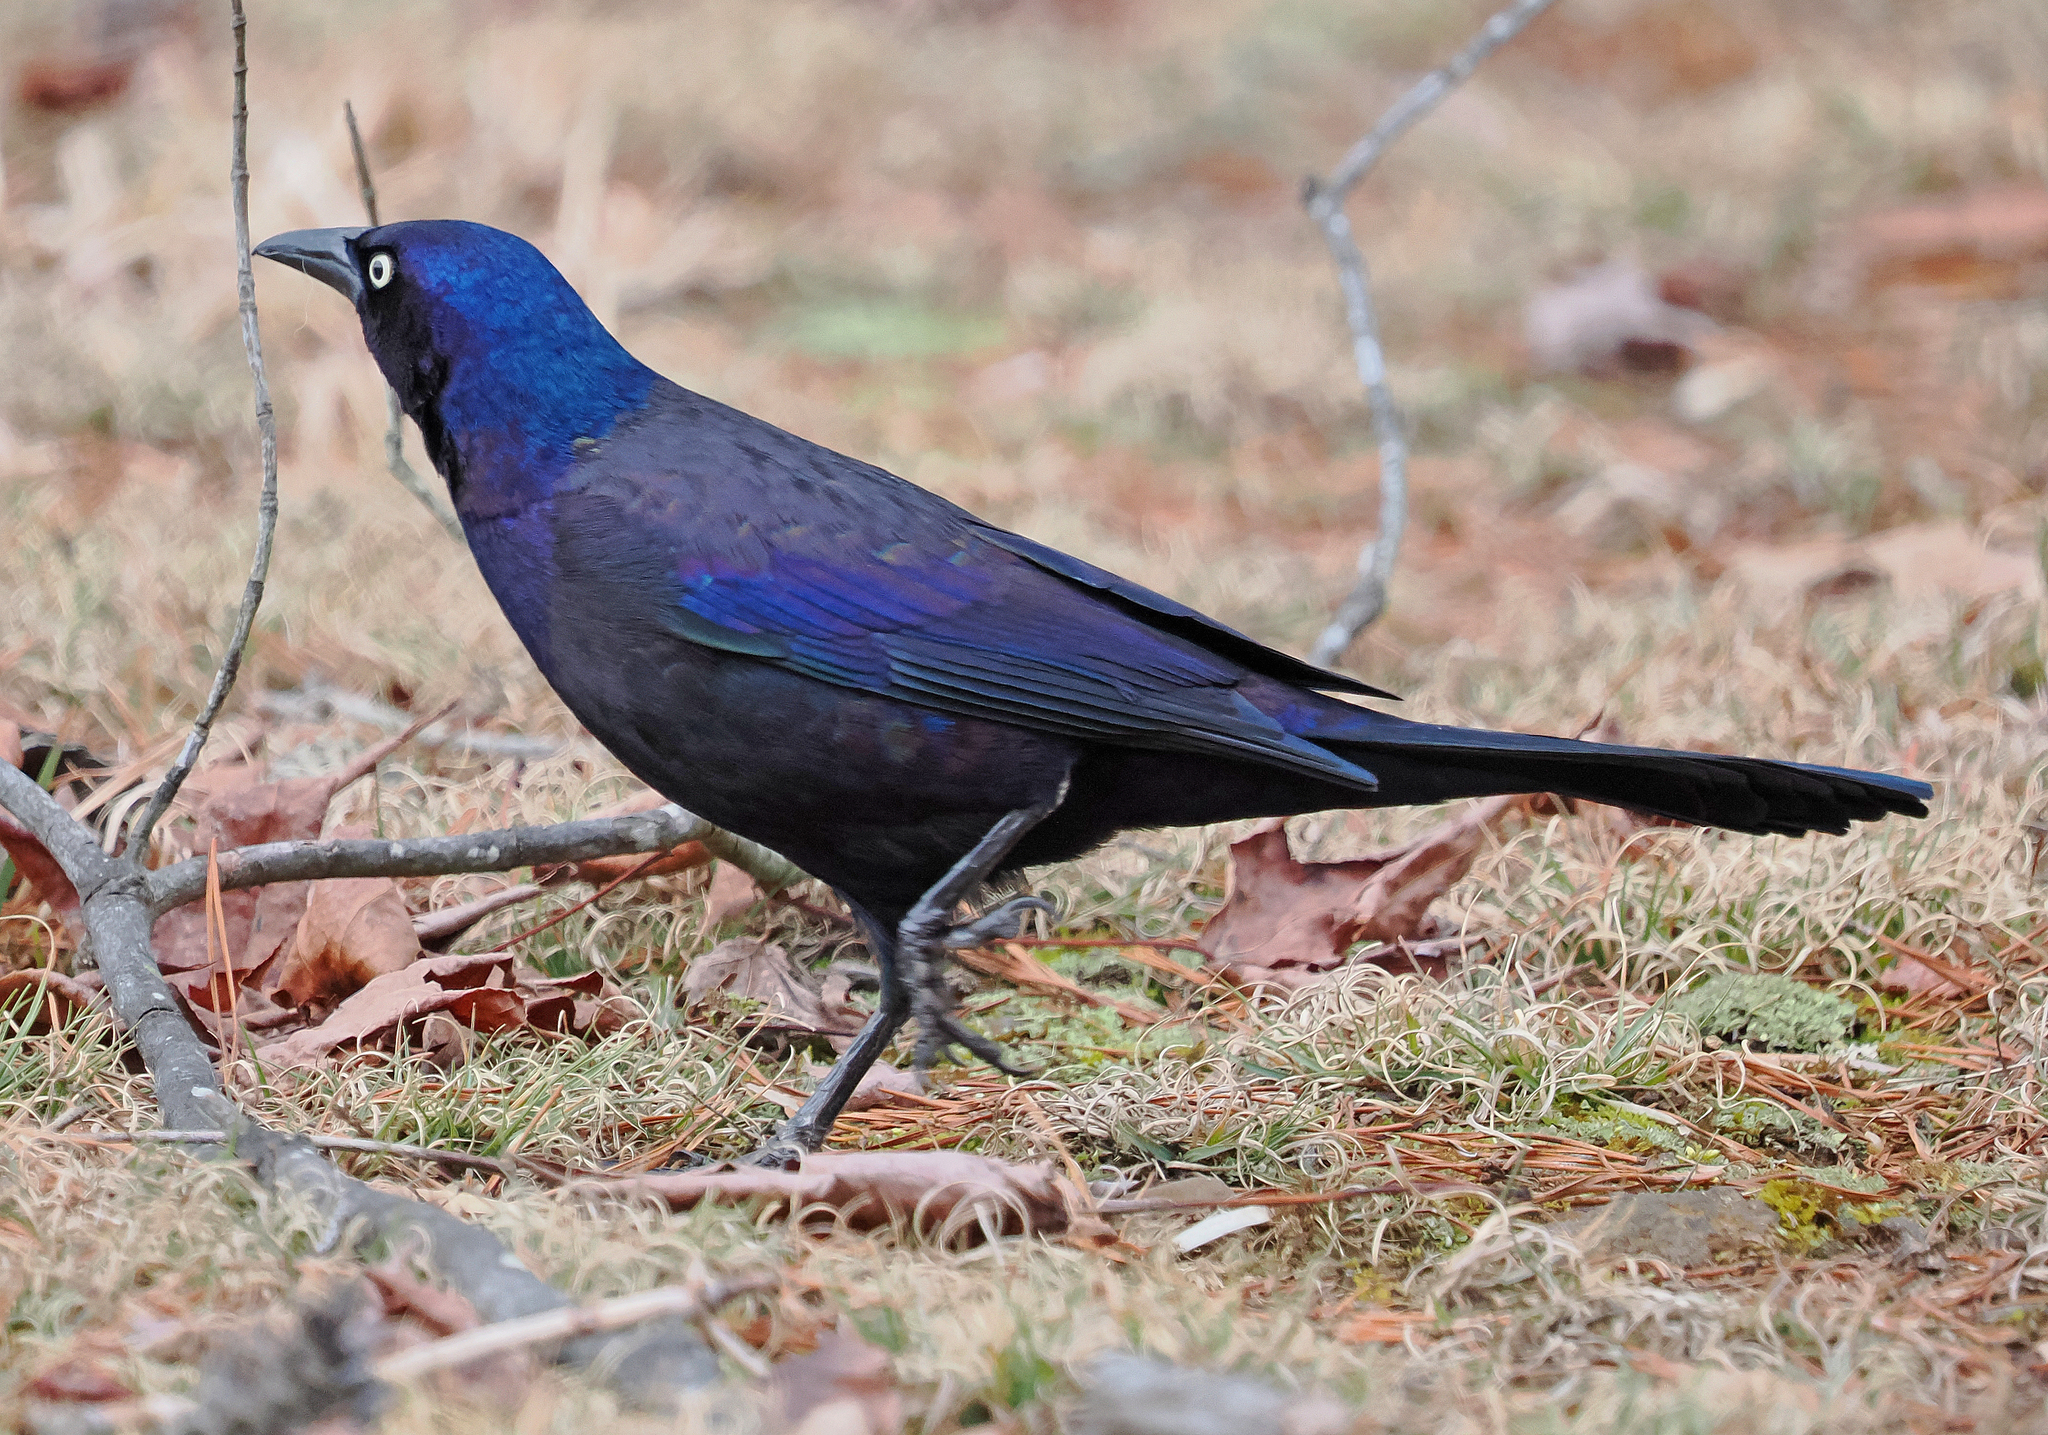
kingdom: Animalia
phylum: Chordata
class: Aves
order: Passeriformes
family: Icteridae
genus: Quiscalus
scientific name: Quiscalus quiscula
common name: Common grackle
